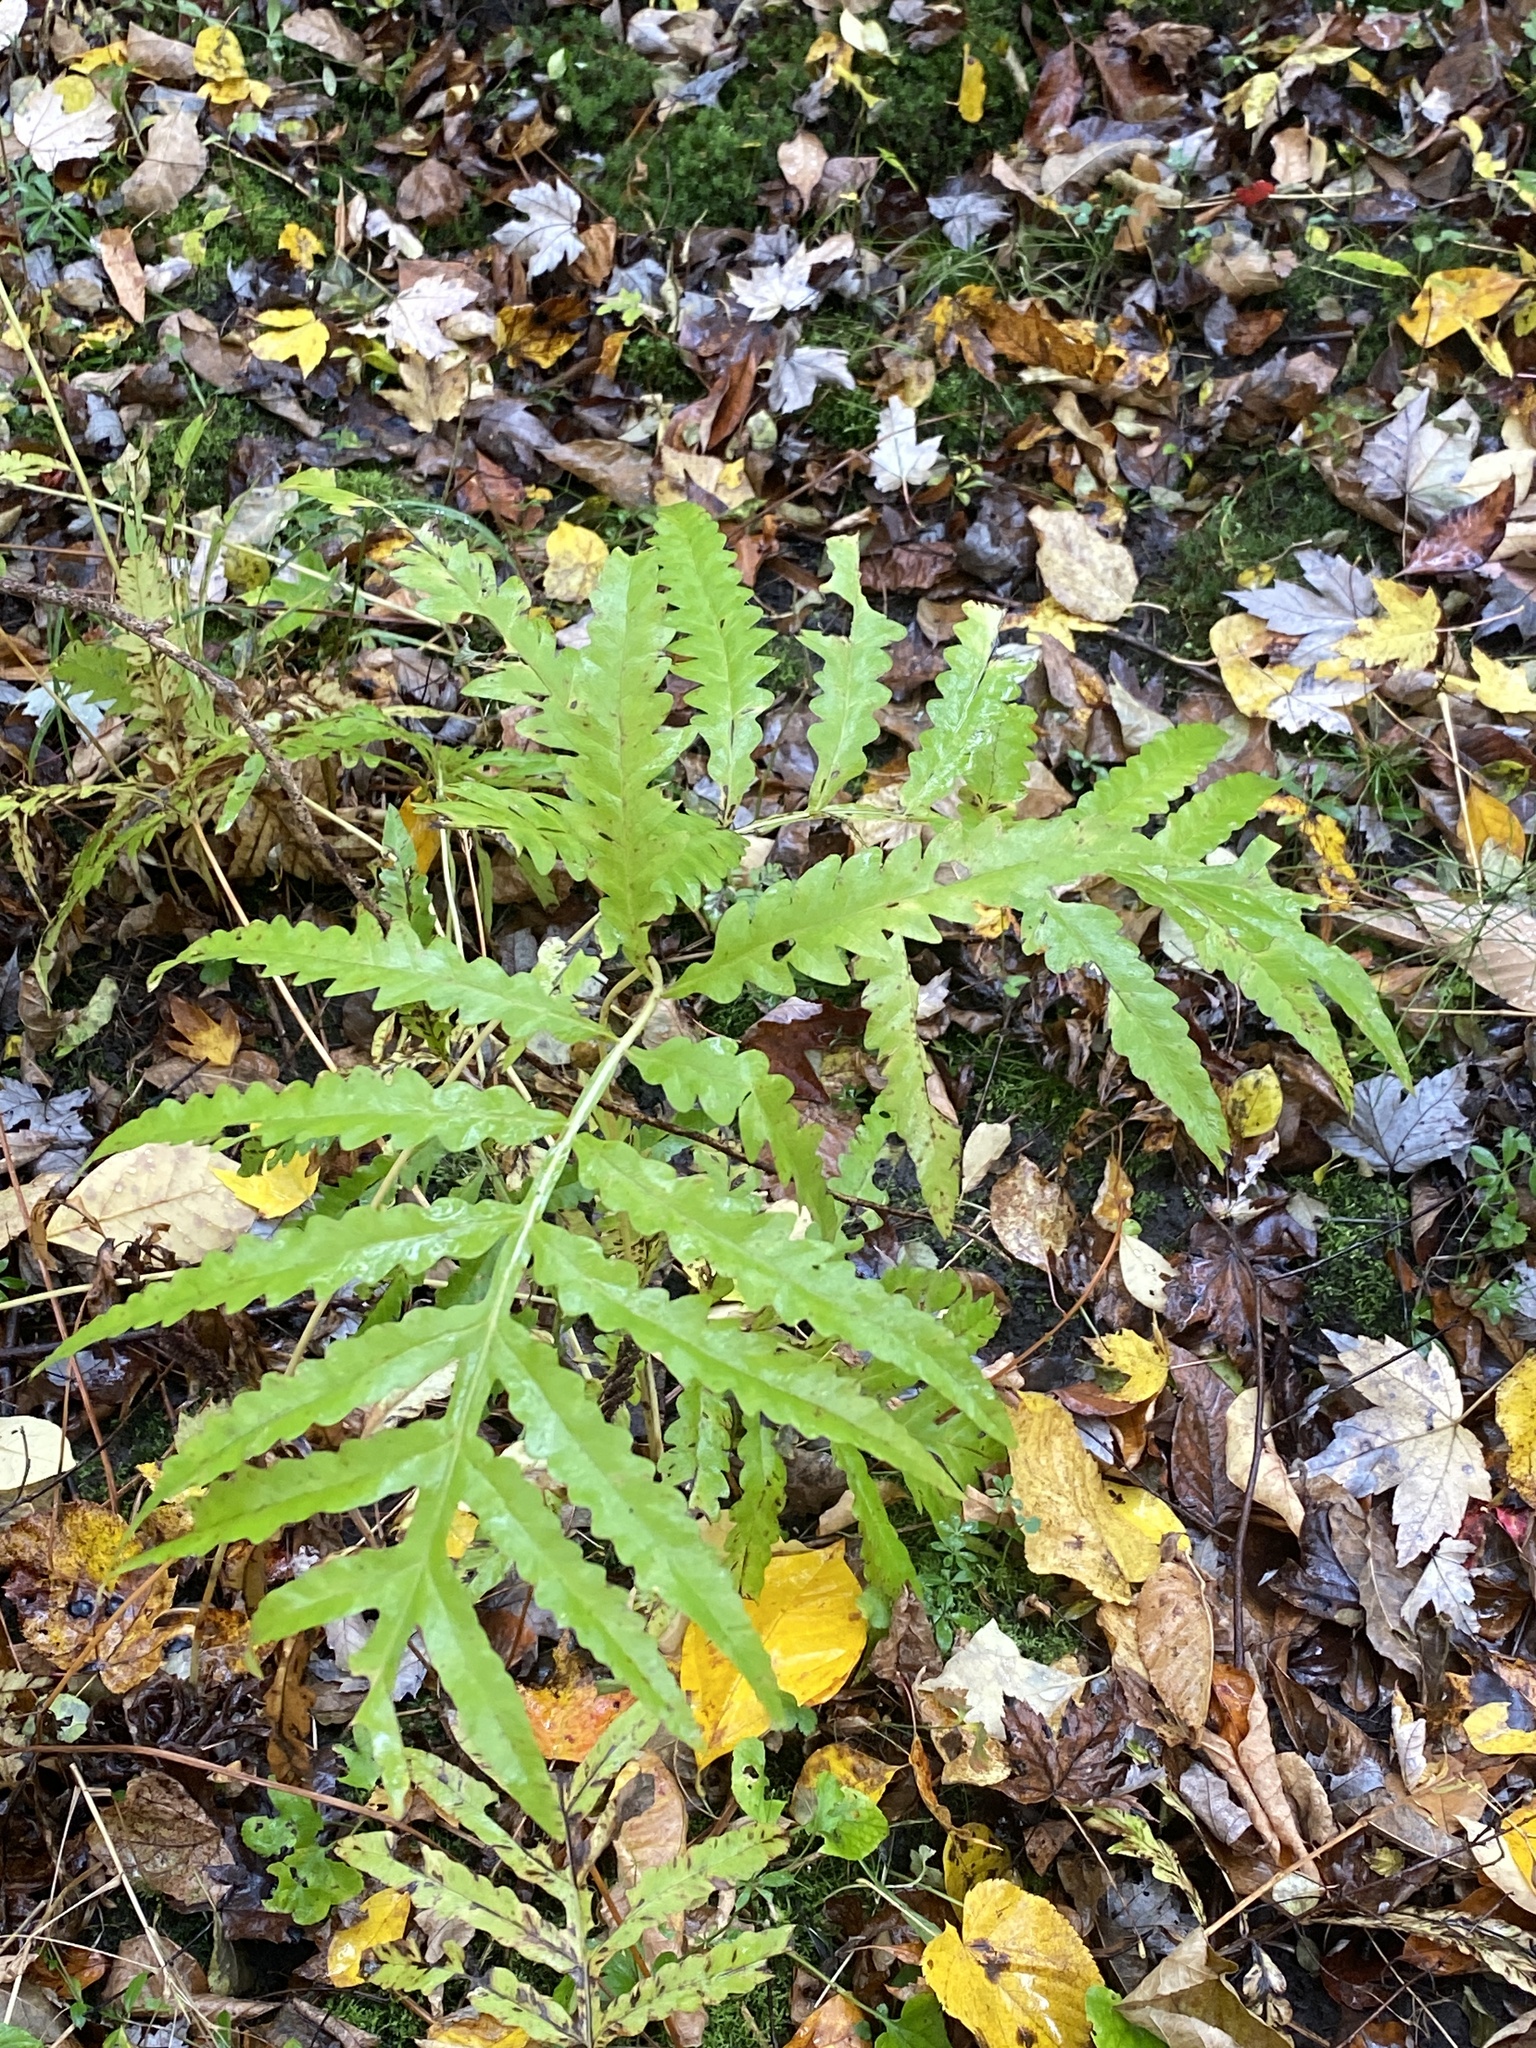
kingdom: Plantae
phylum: Tracheophyta
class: Polypodiopsida
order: Polypodiales
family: Onocleaceae
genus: Onoclea
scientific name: Onoclea sensibilis
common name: Sensitive fern
